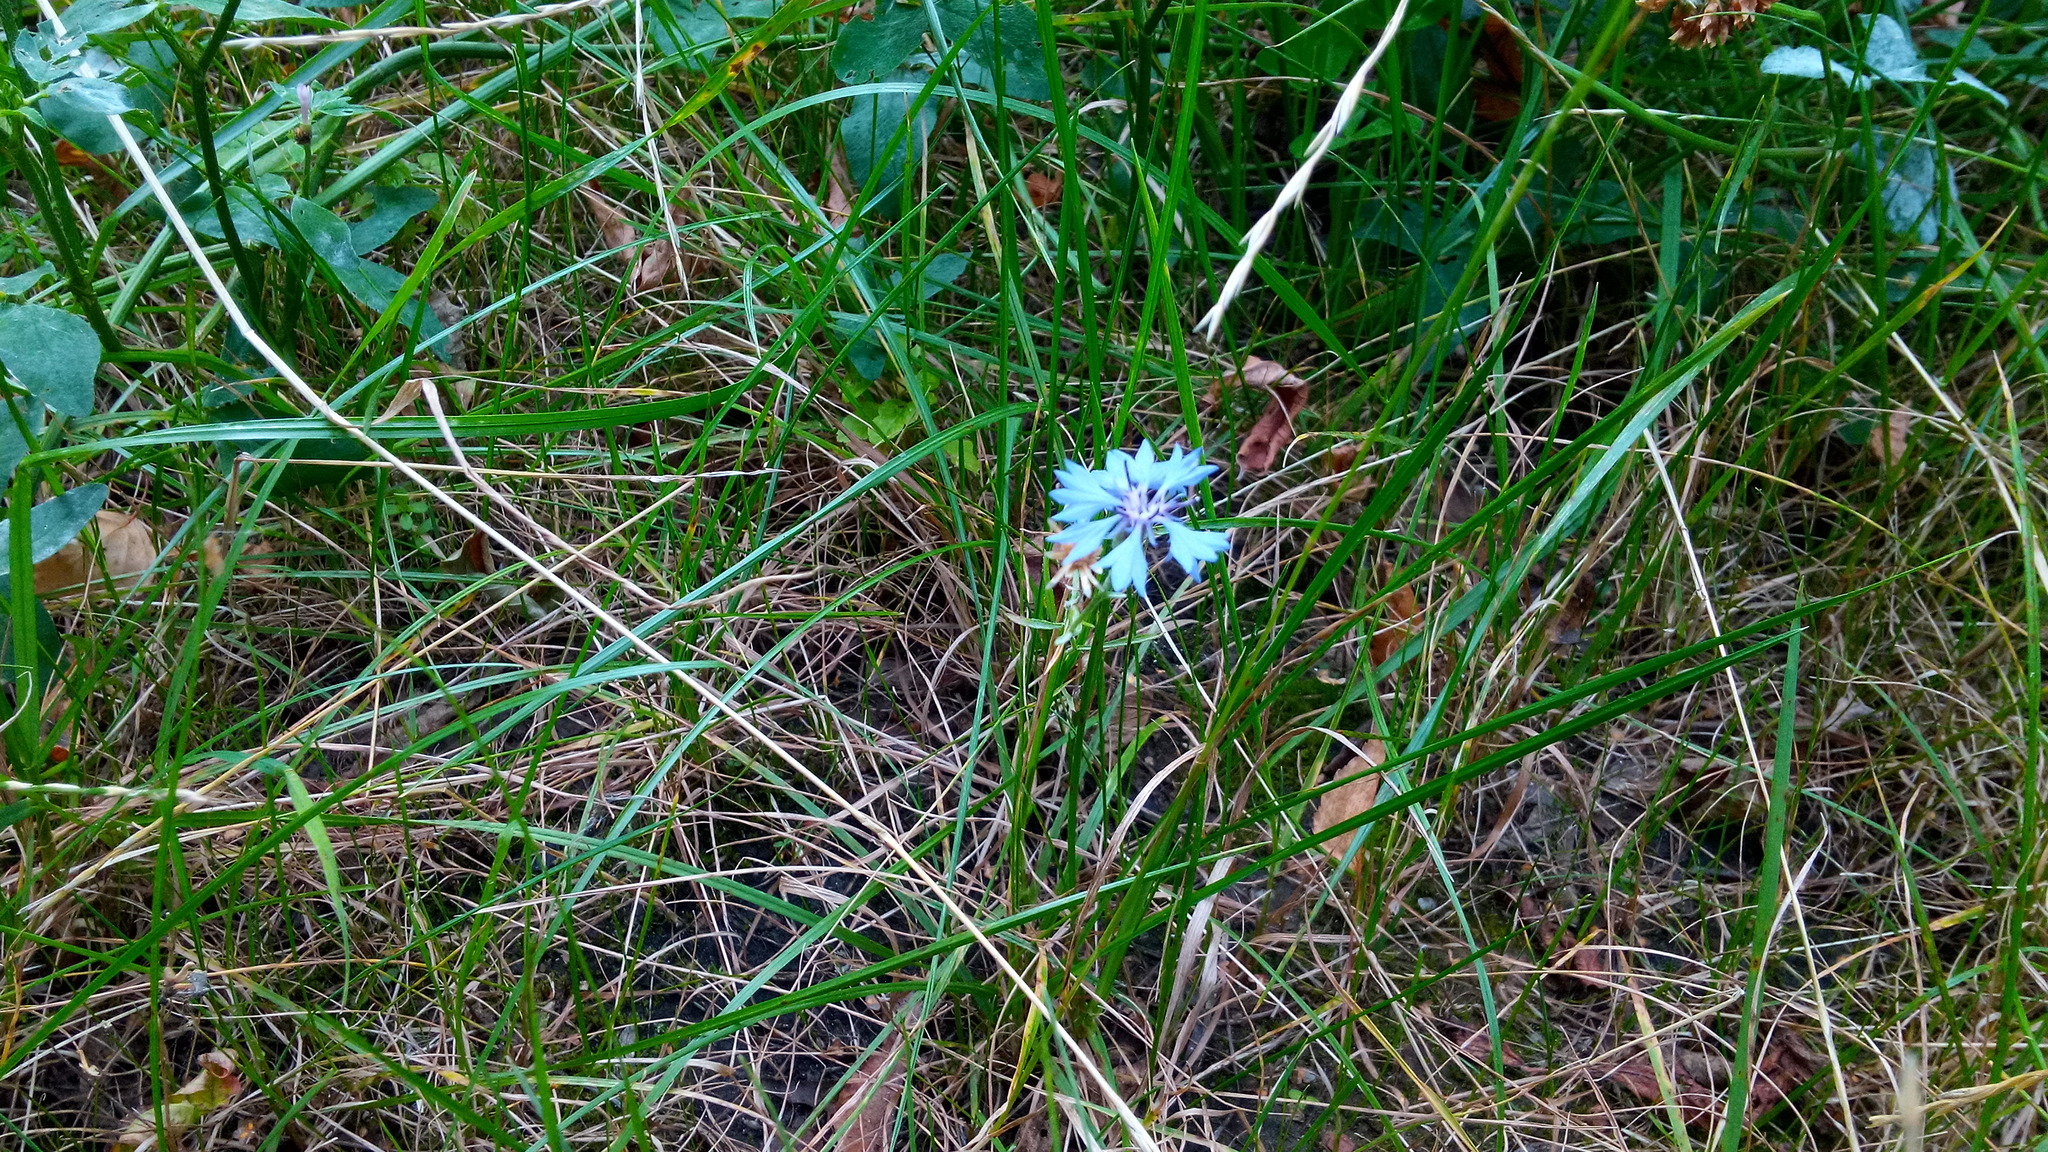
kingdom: Plantae
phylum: Tracheophyta
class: Magnoliopsida
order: Asterales
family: Asteraceae
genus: Centaurea
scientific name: Centaurea cyanus
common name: Cornflower
